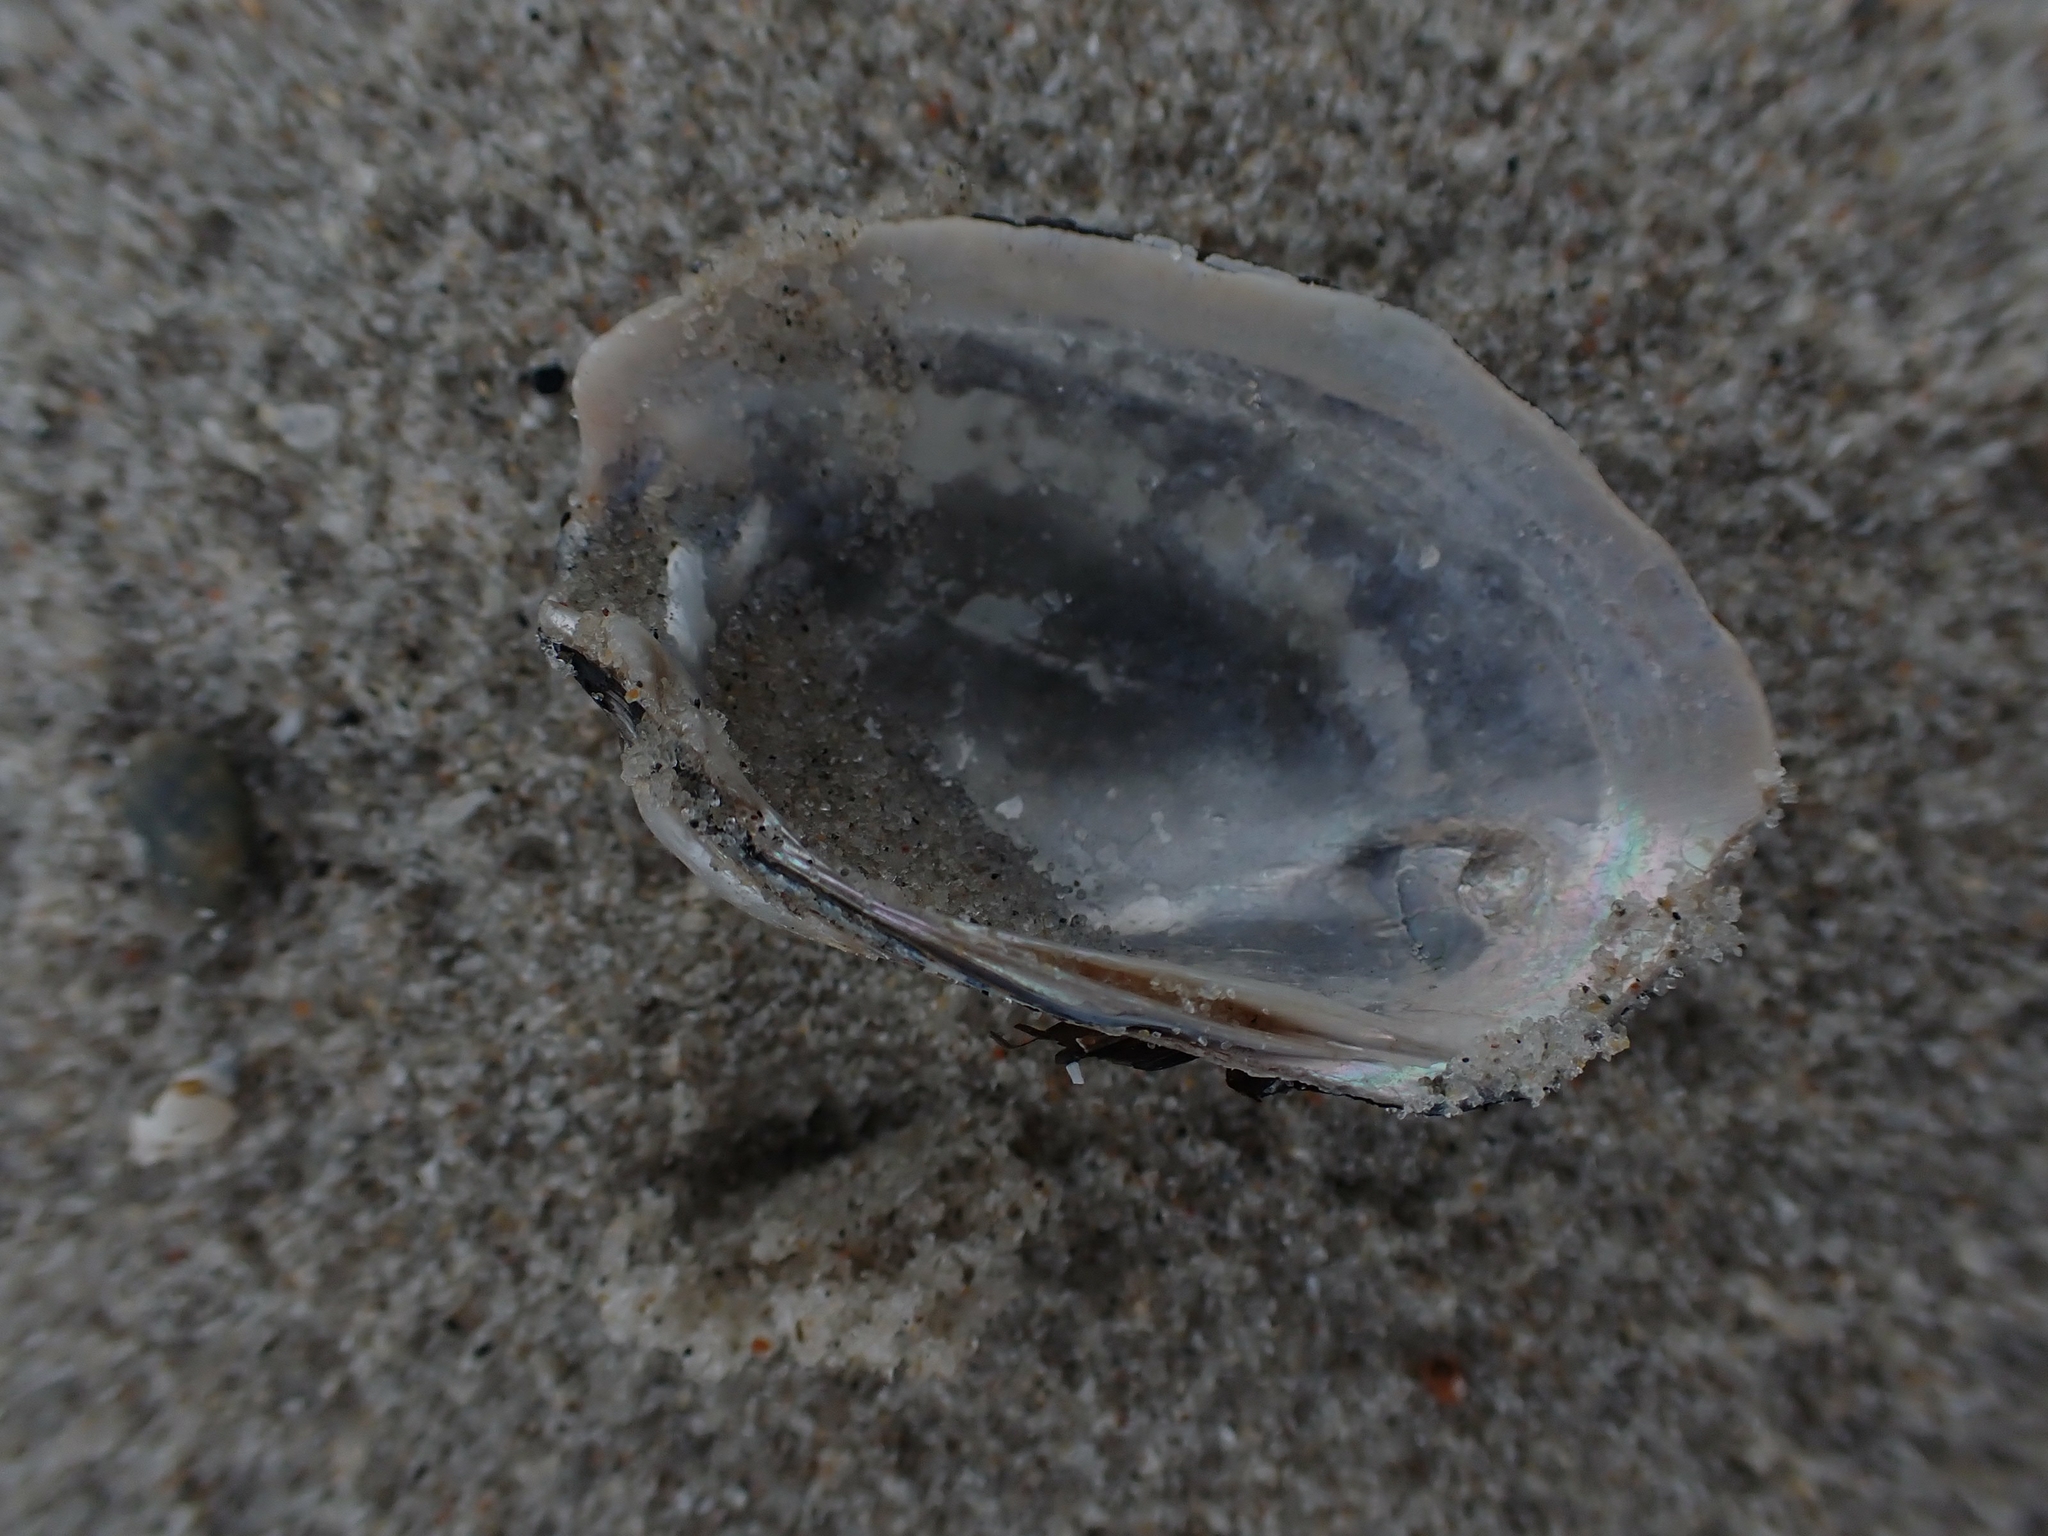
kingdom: Animalia
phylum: Mollusca
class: Bivalvia
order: Unionida
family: Unionidae
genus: Lampsilis
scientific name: Lampsilis siliquoidea
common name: Fatmucket
